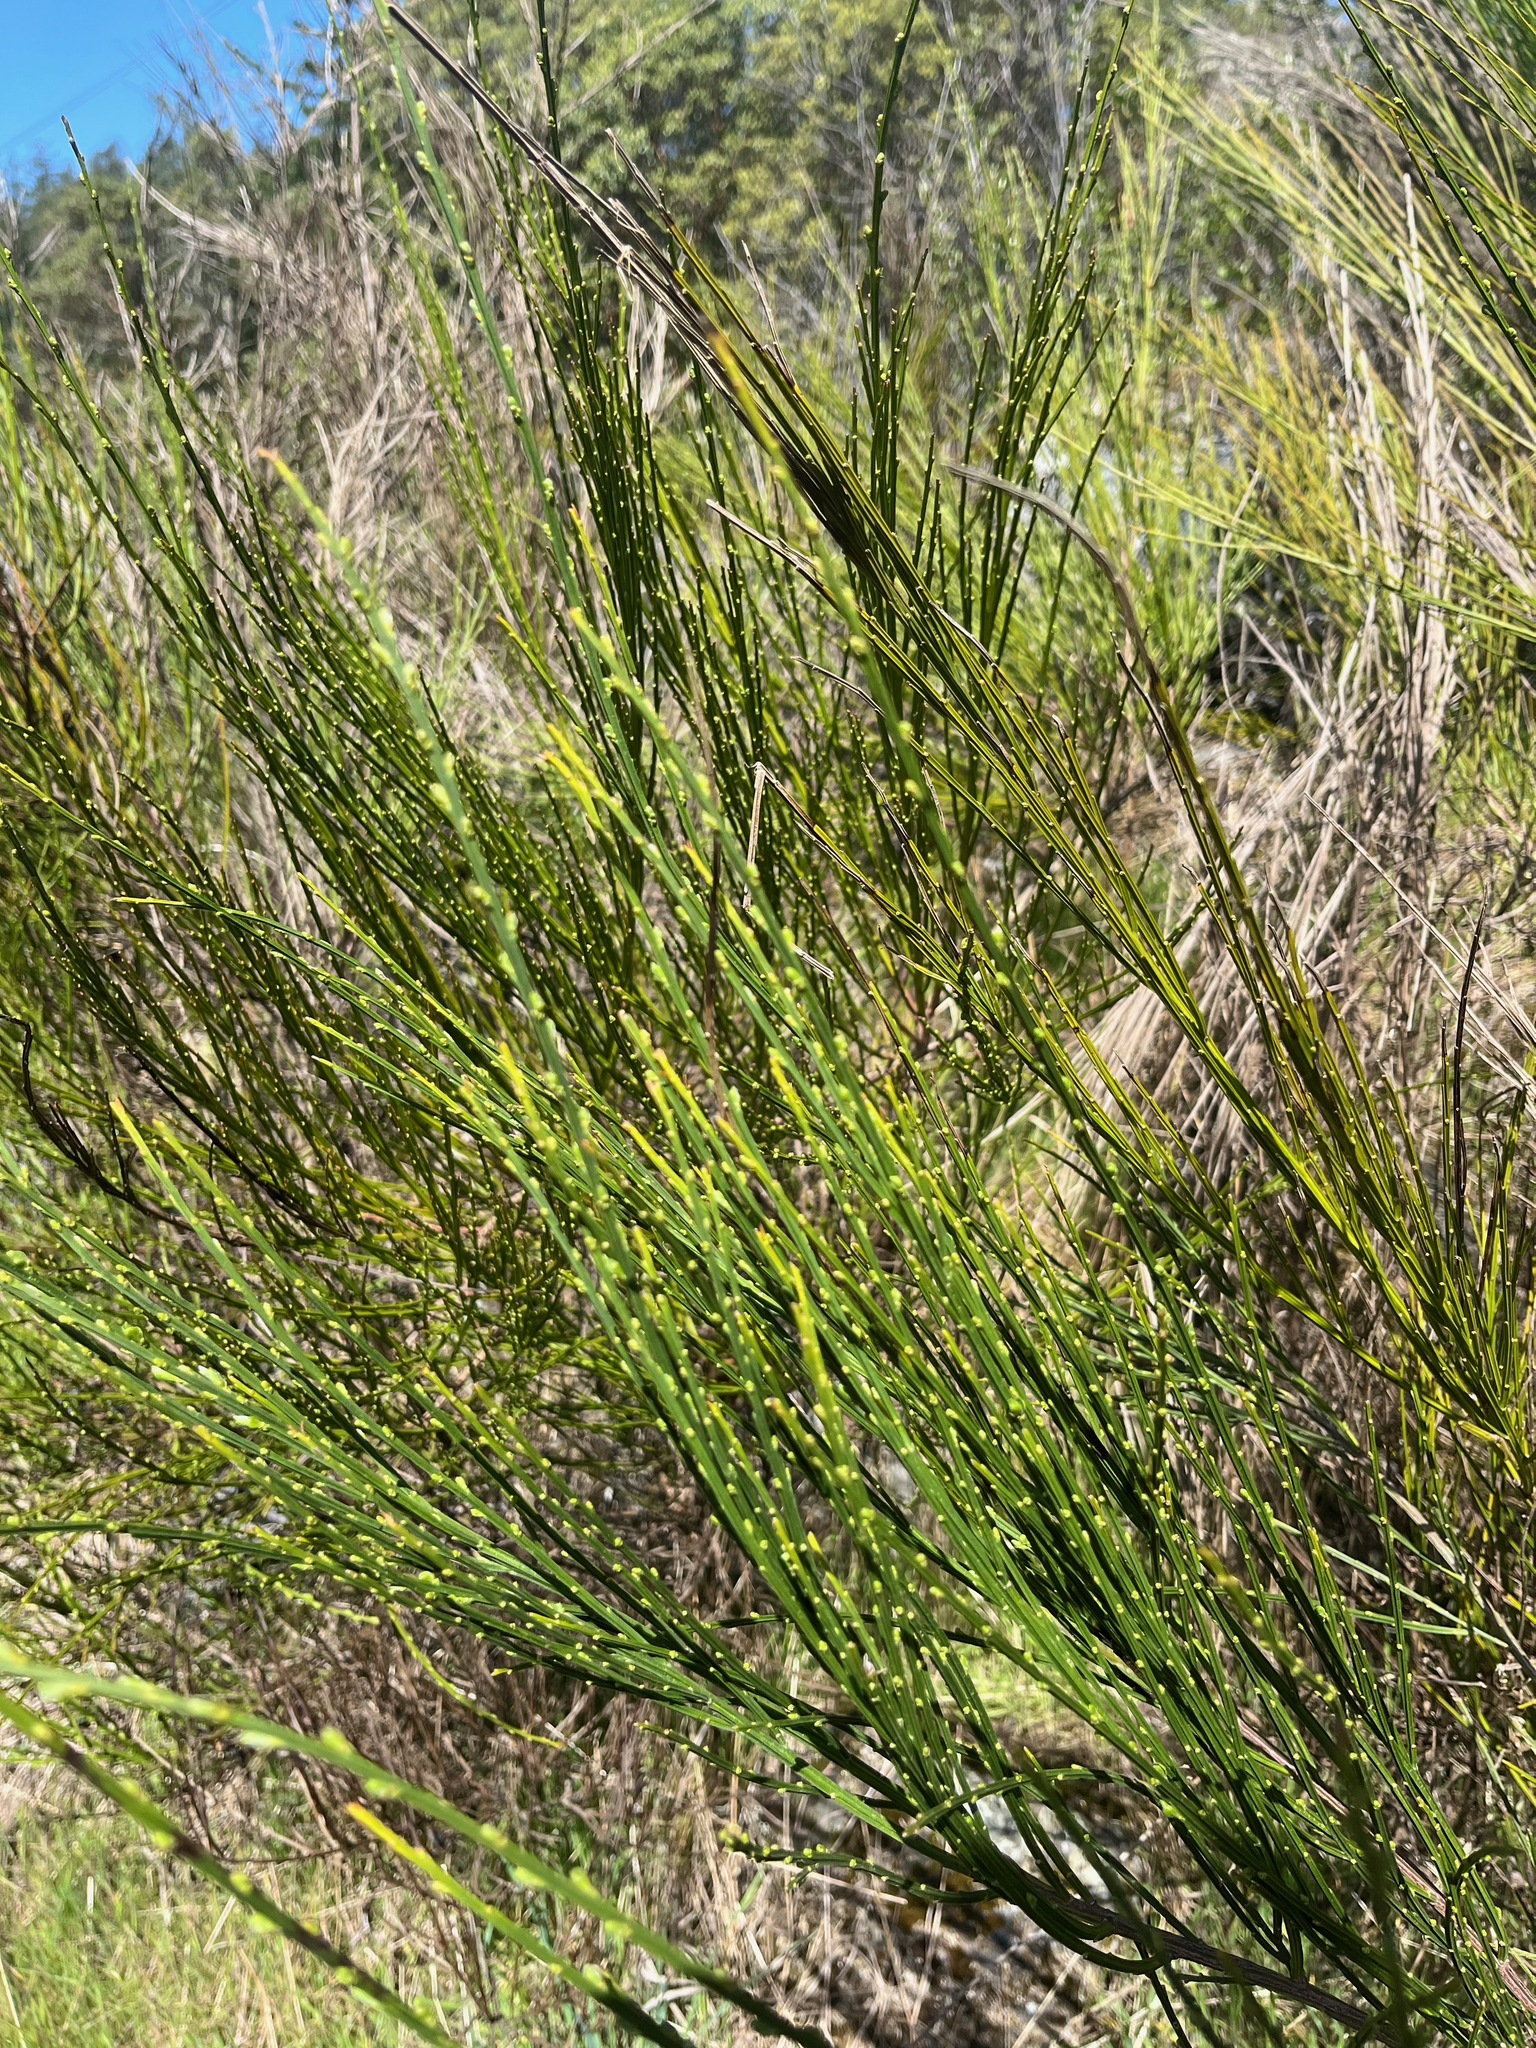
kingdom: Plantae
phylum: Tracheophyta
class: Magnoliopsida
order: Fabales
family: Fabaceae
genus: Cytisus
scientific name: Cytisus scoparius
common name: Scotch broom
